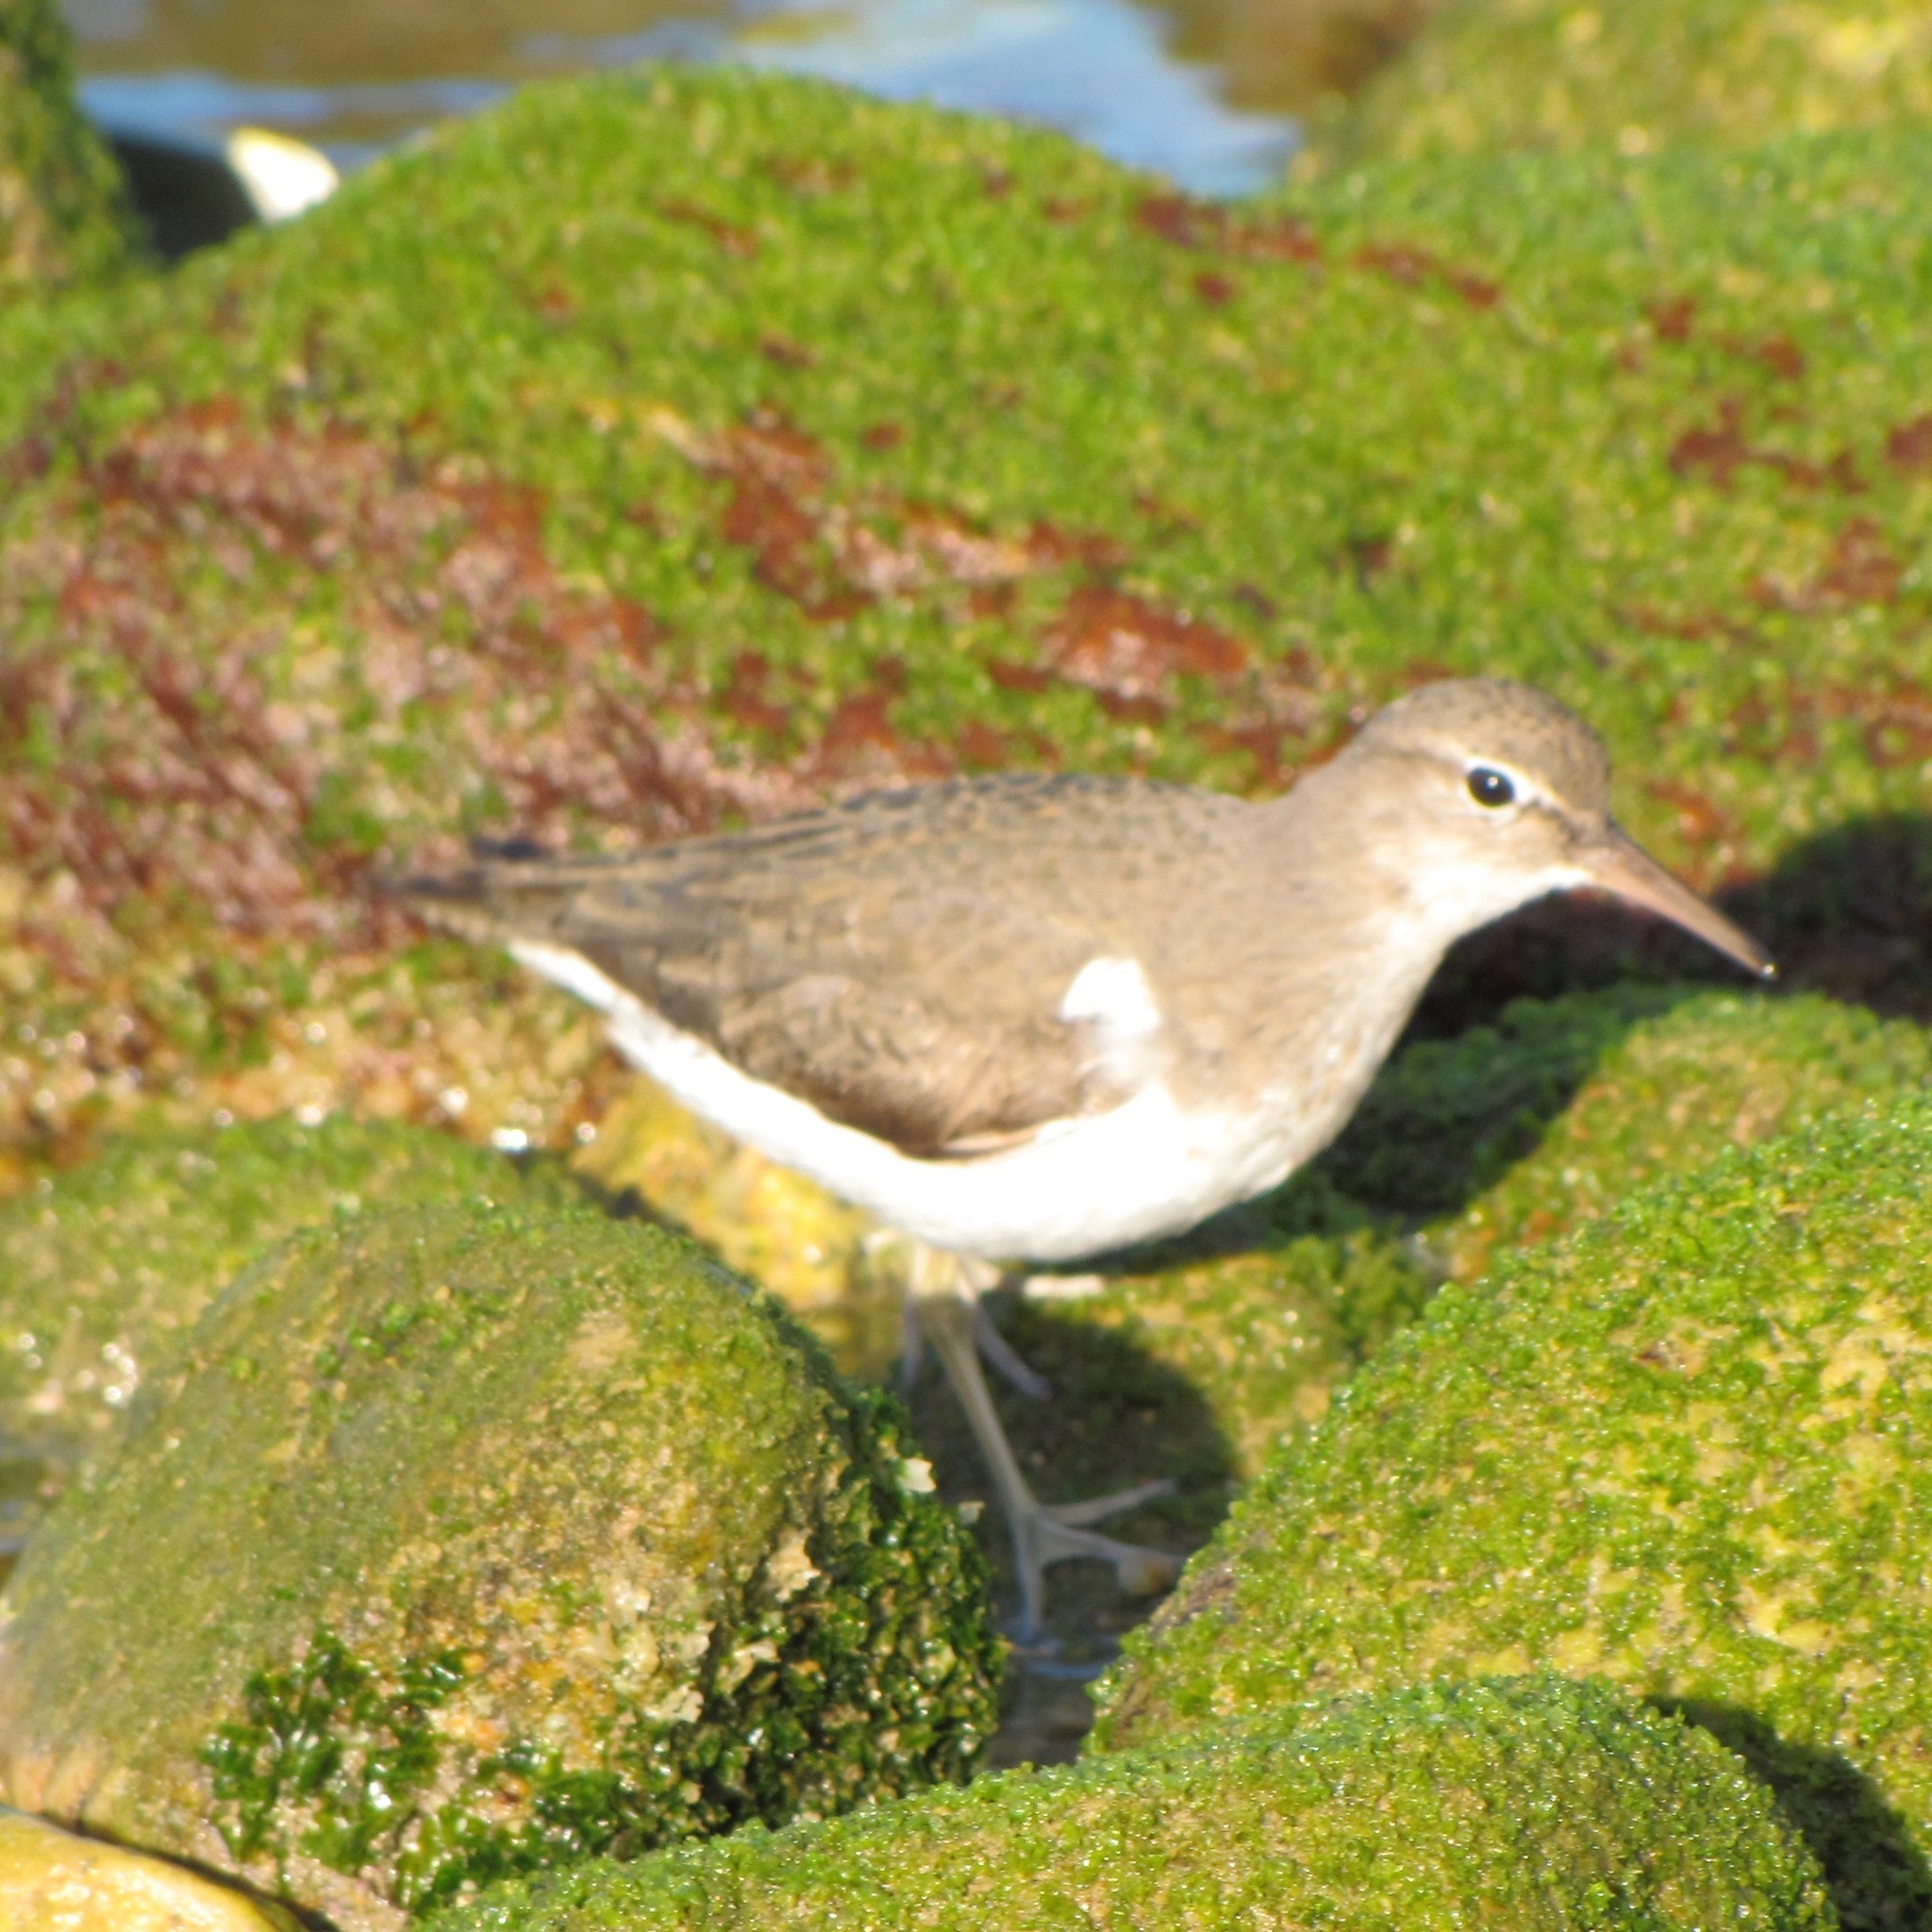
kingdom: Animalia
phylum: Chordata
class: Aves
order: Charadriiformes
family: Scolopacidae
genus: Actitis
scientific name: Actitis macularius
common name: Spotted sandpiper
